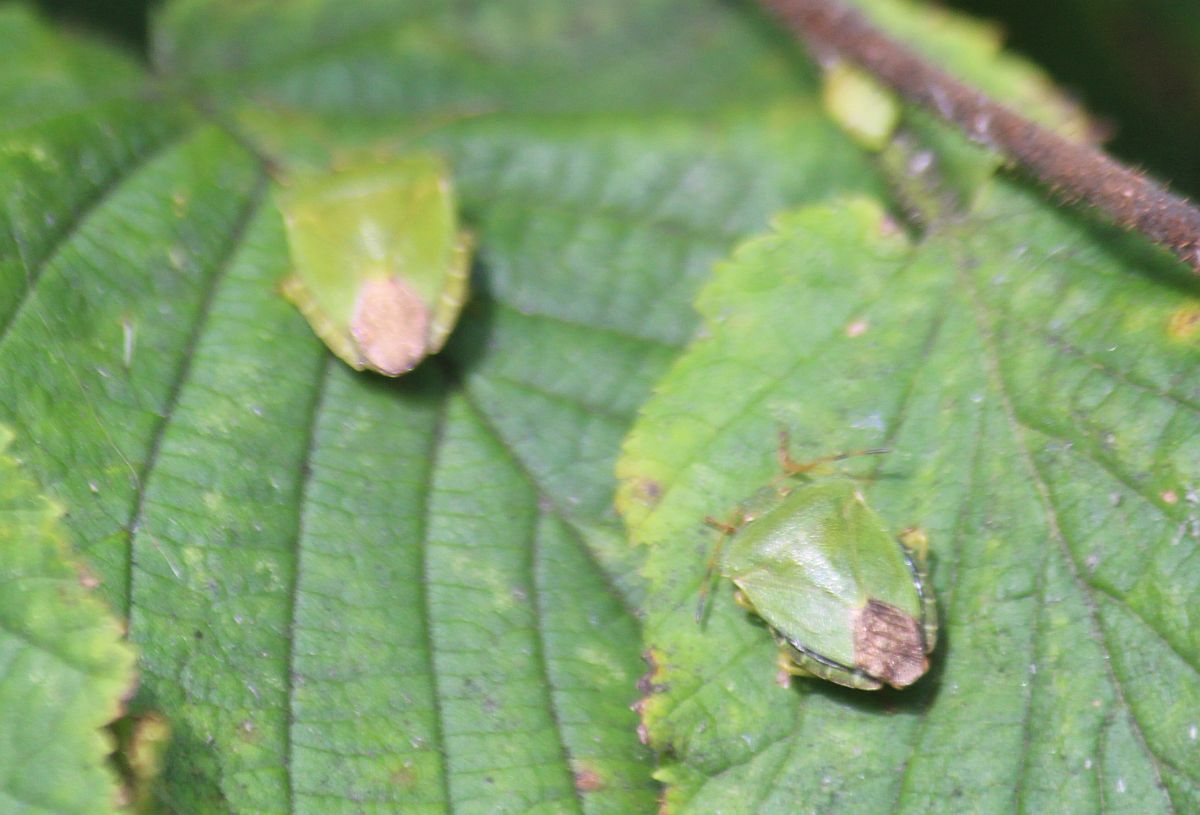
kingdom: Animalia
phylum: Arthropoda
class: Insecta
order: Hemiptera
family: Pentatomidae
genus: Palomena
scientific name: Palomena prasina
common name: Green shieldbug
